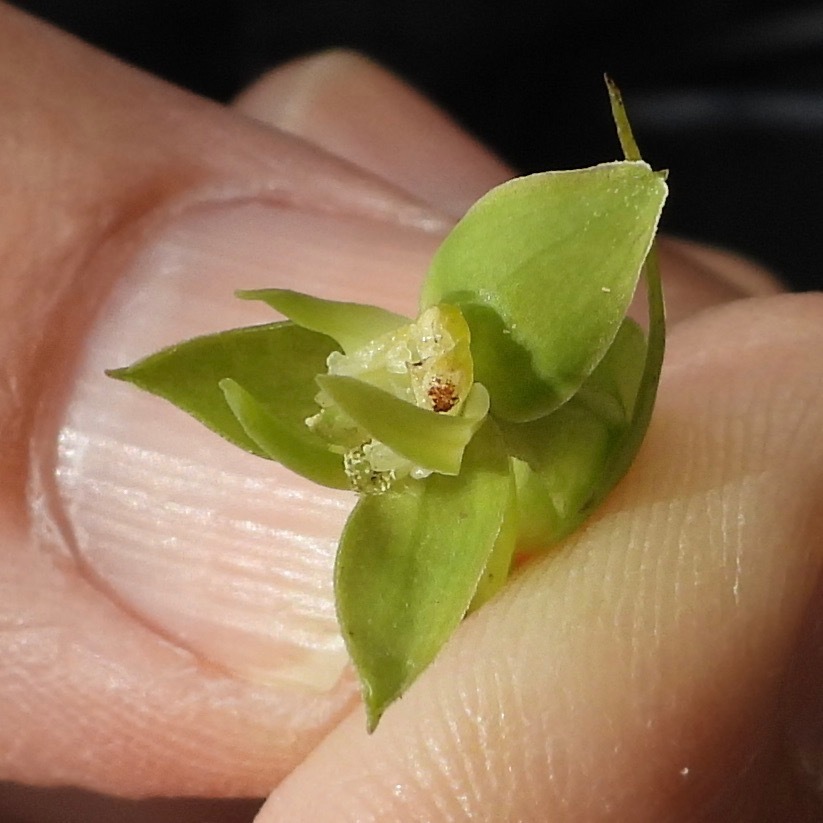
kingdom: Plantae
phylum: Tracheophyta
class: Liliopsida
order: Asparagales
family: Orchidaceae
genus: Habenaria
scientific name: Habenaria alata
